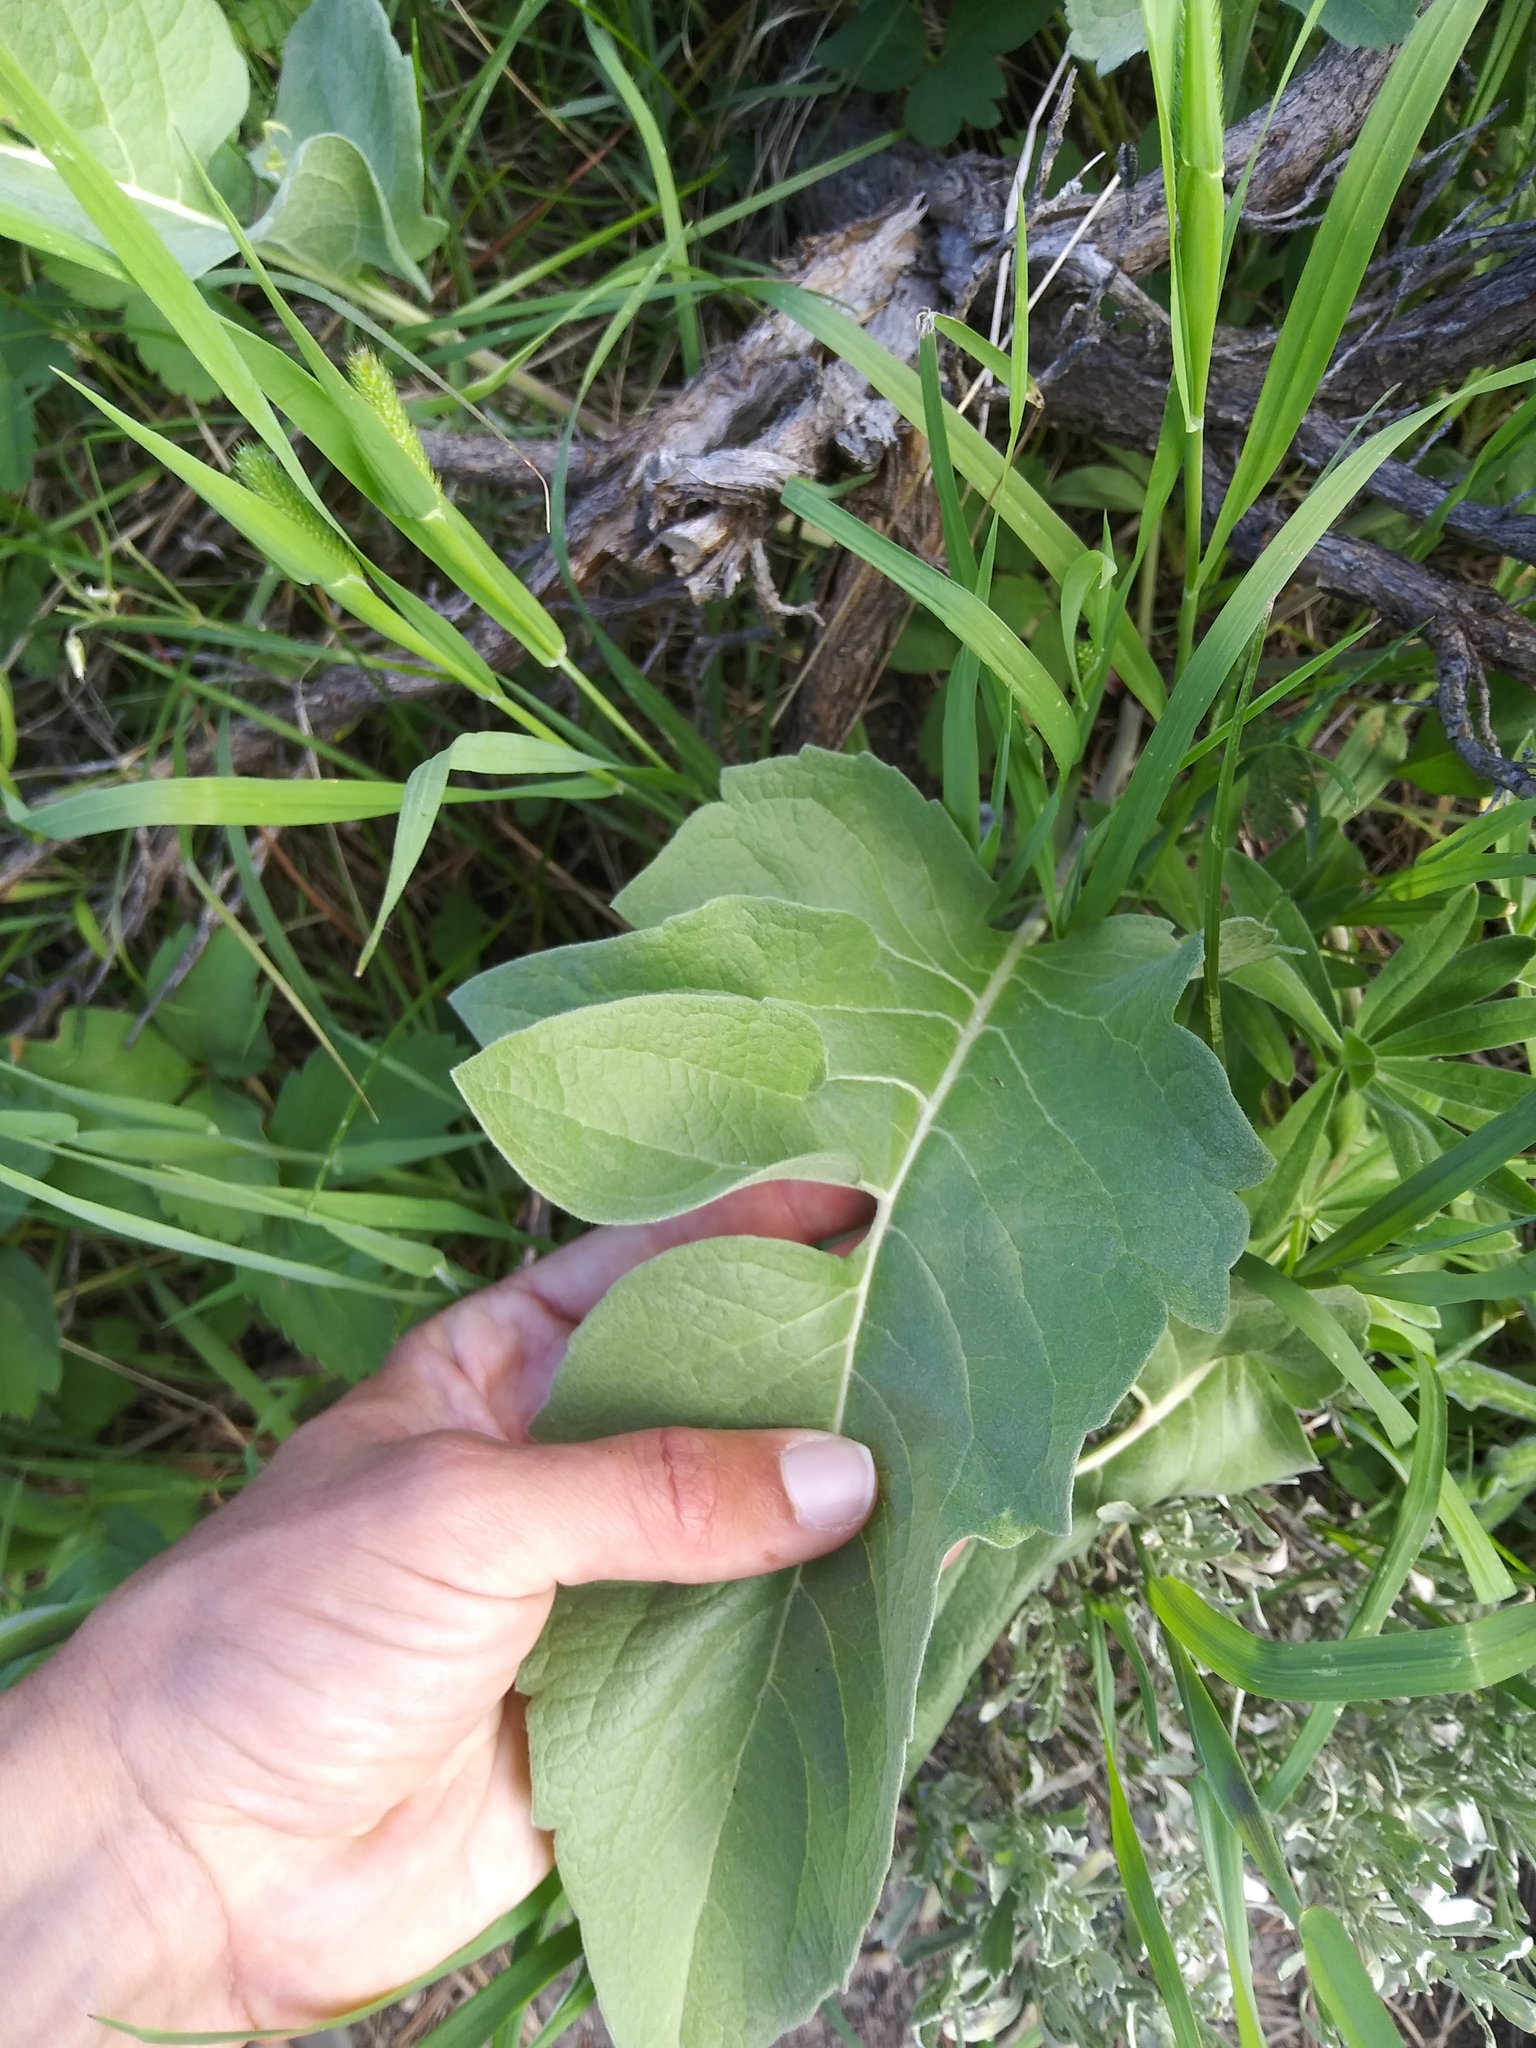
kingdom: Plantae
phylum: Tracheophyta
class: Magnoliopsida
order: Asterales
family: Asteraceae
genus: Wyethia
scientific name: Wyethia sagittata
